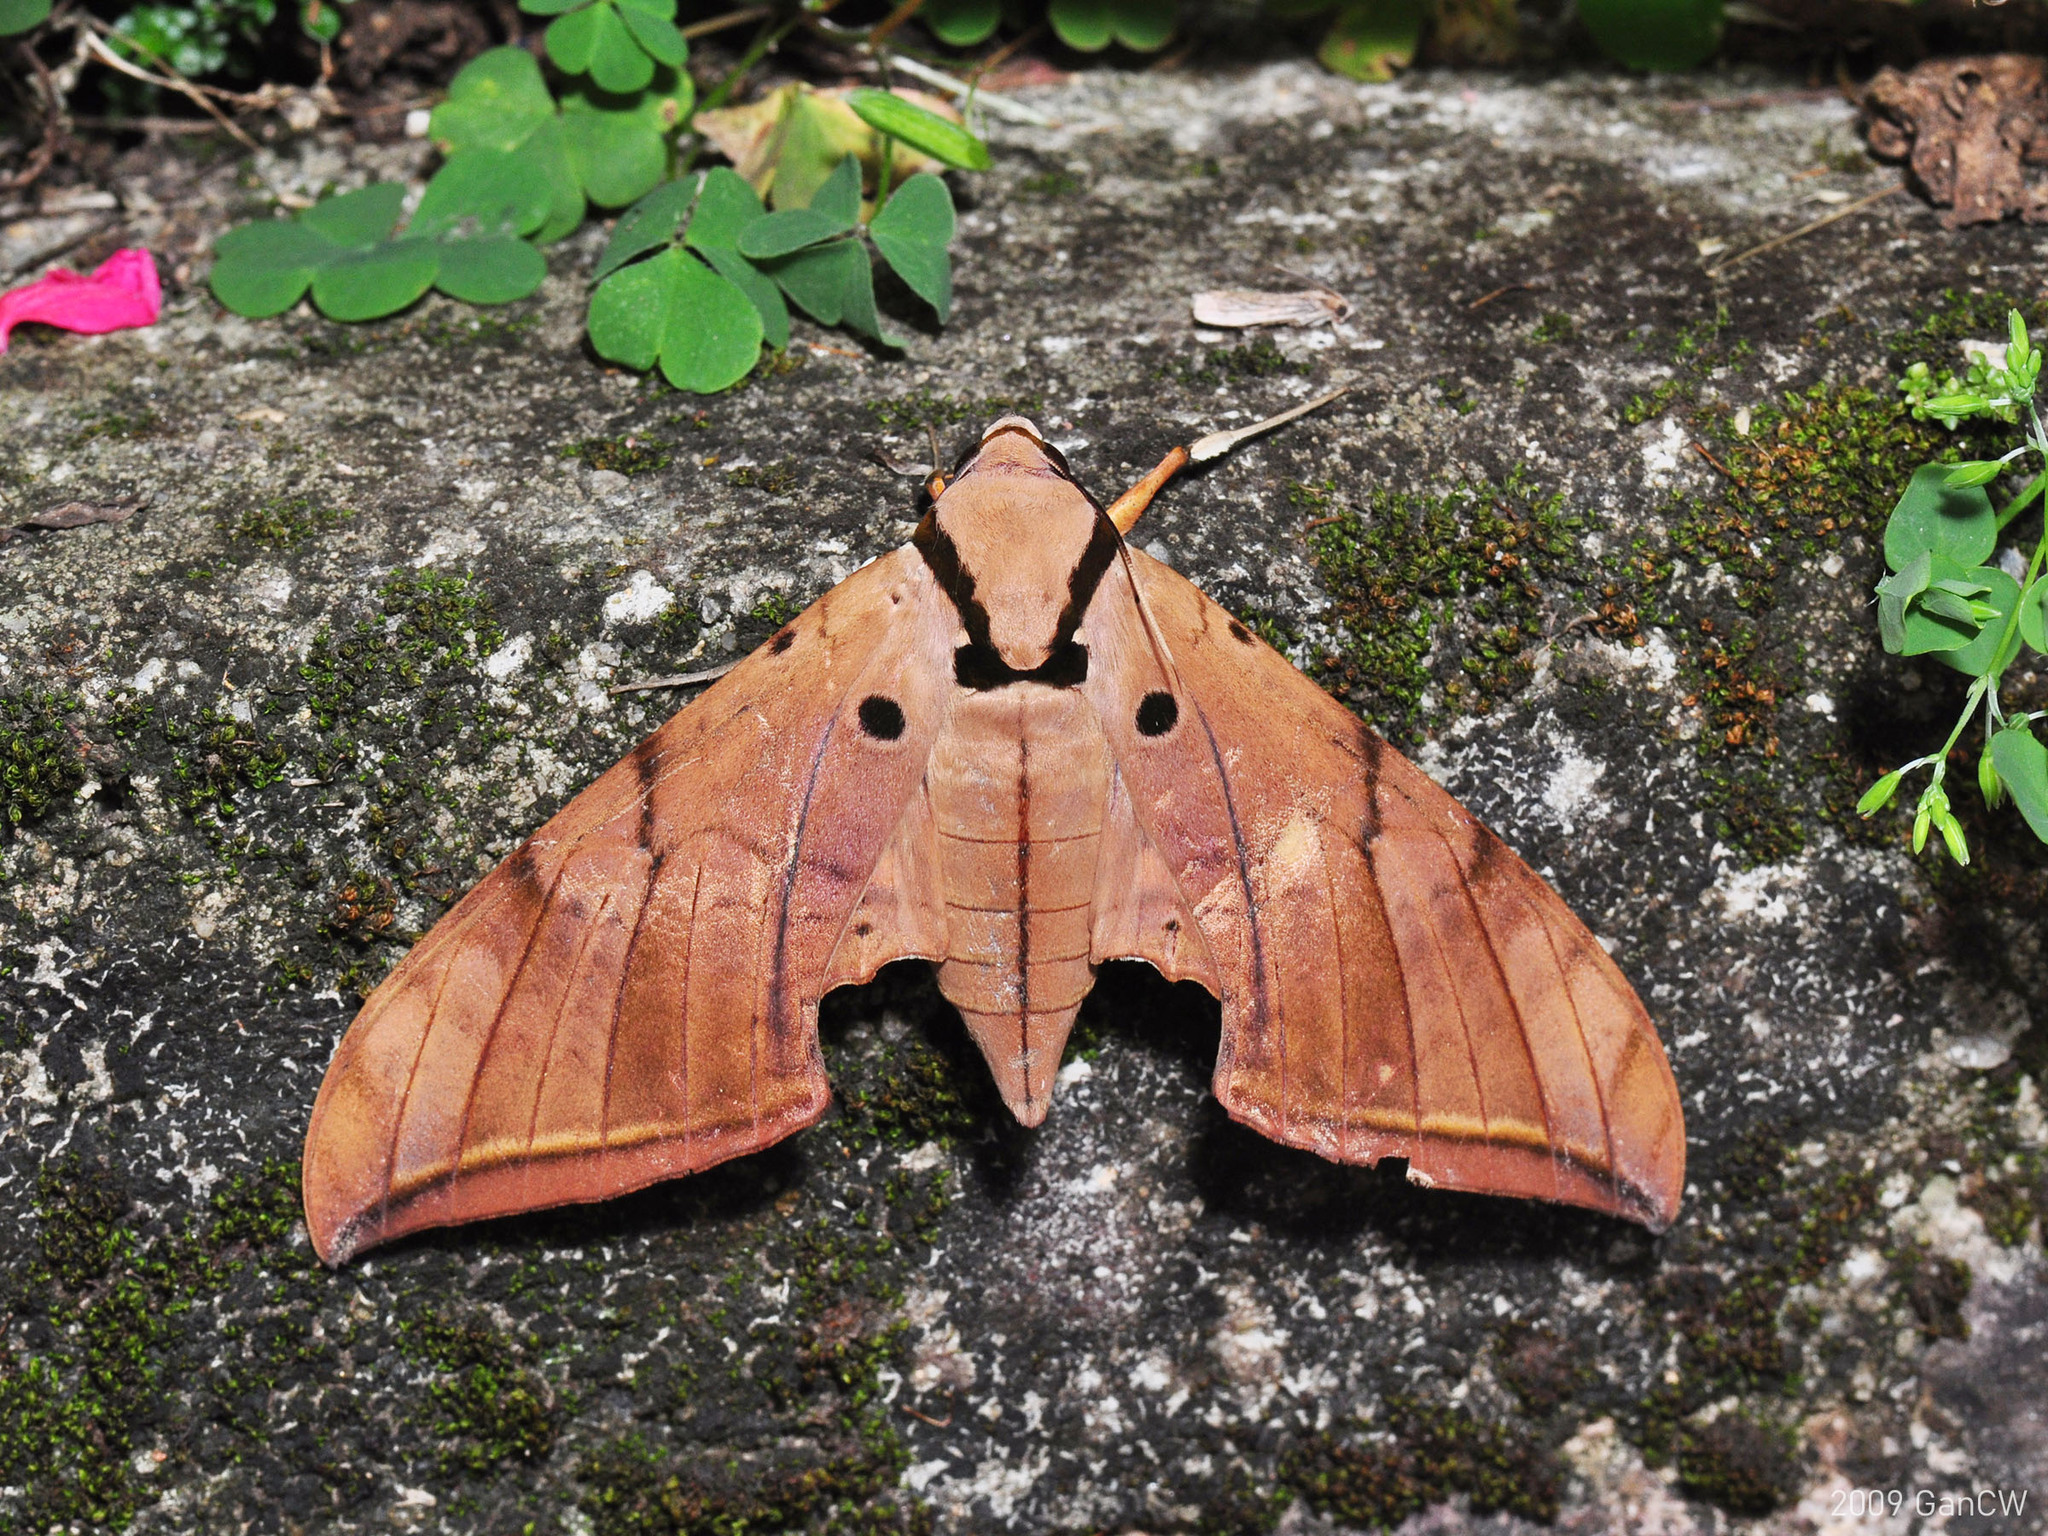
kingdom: Animalia
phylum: Arthropoda
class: Insecta
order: Lepidoptera
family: Sphingidae
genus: Ambulyx
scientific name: Ambulyx pryeri
